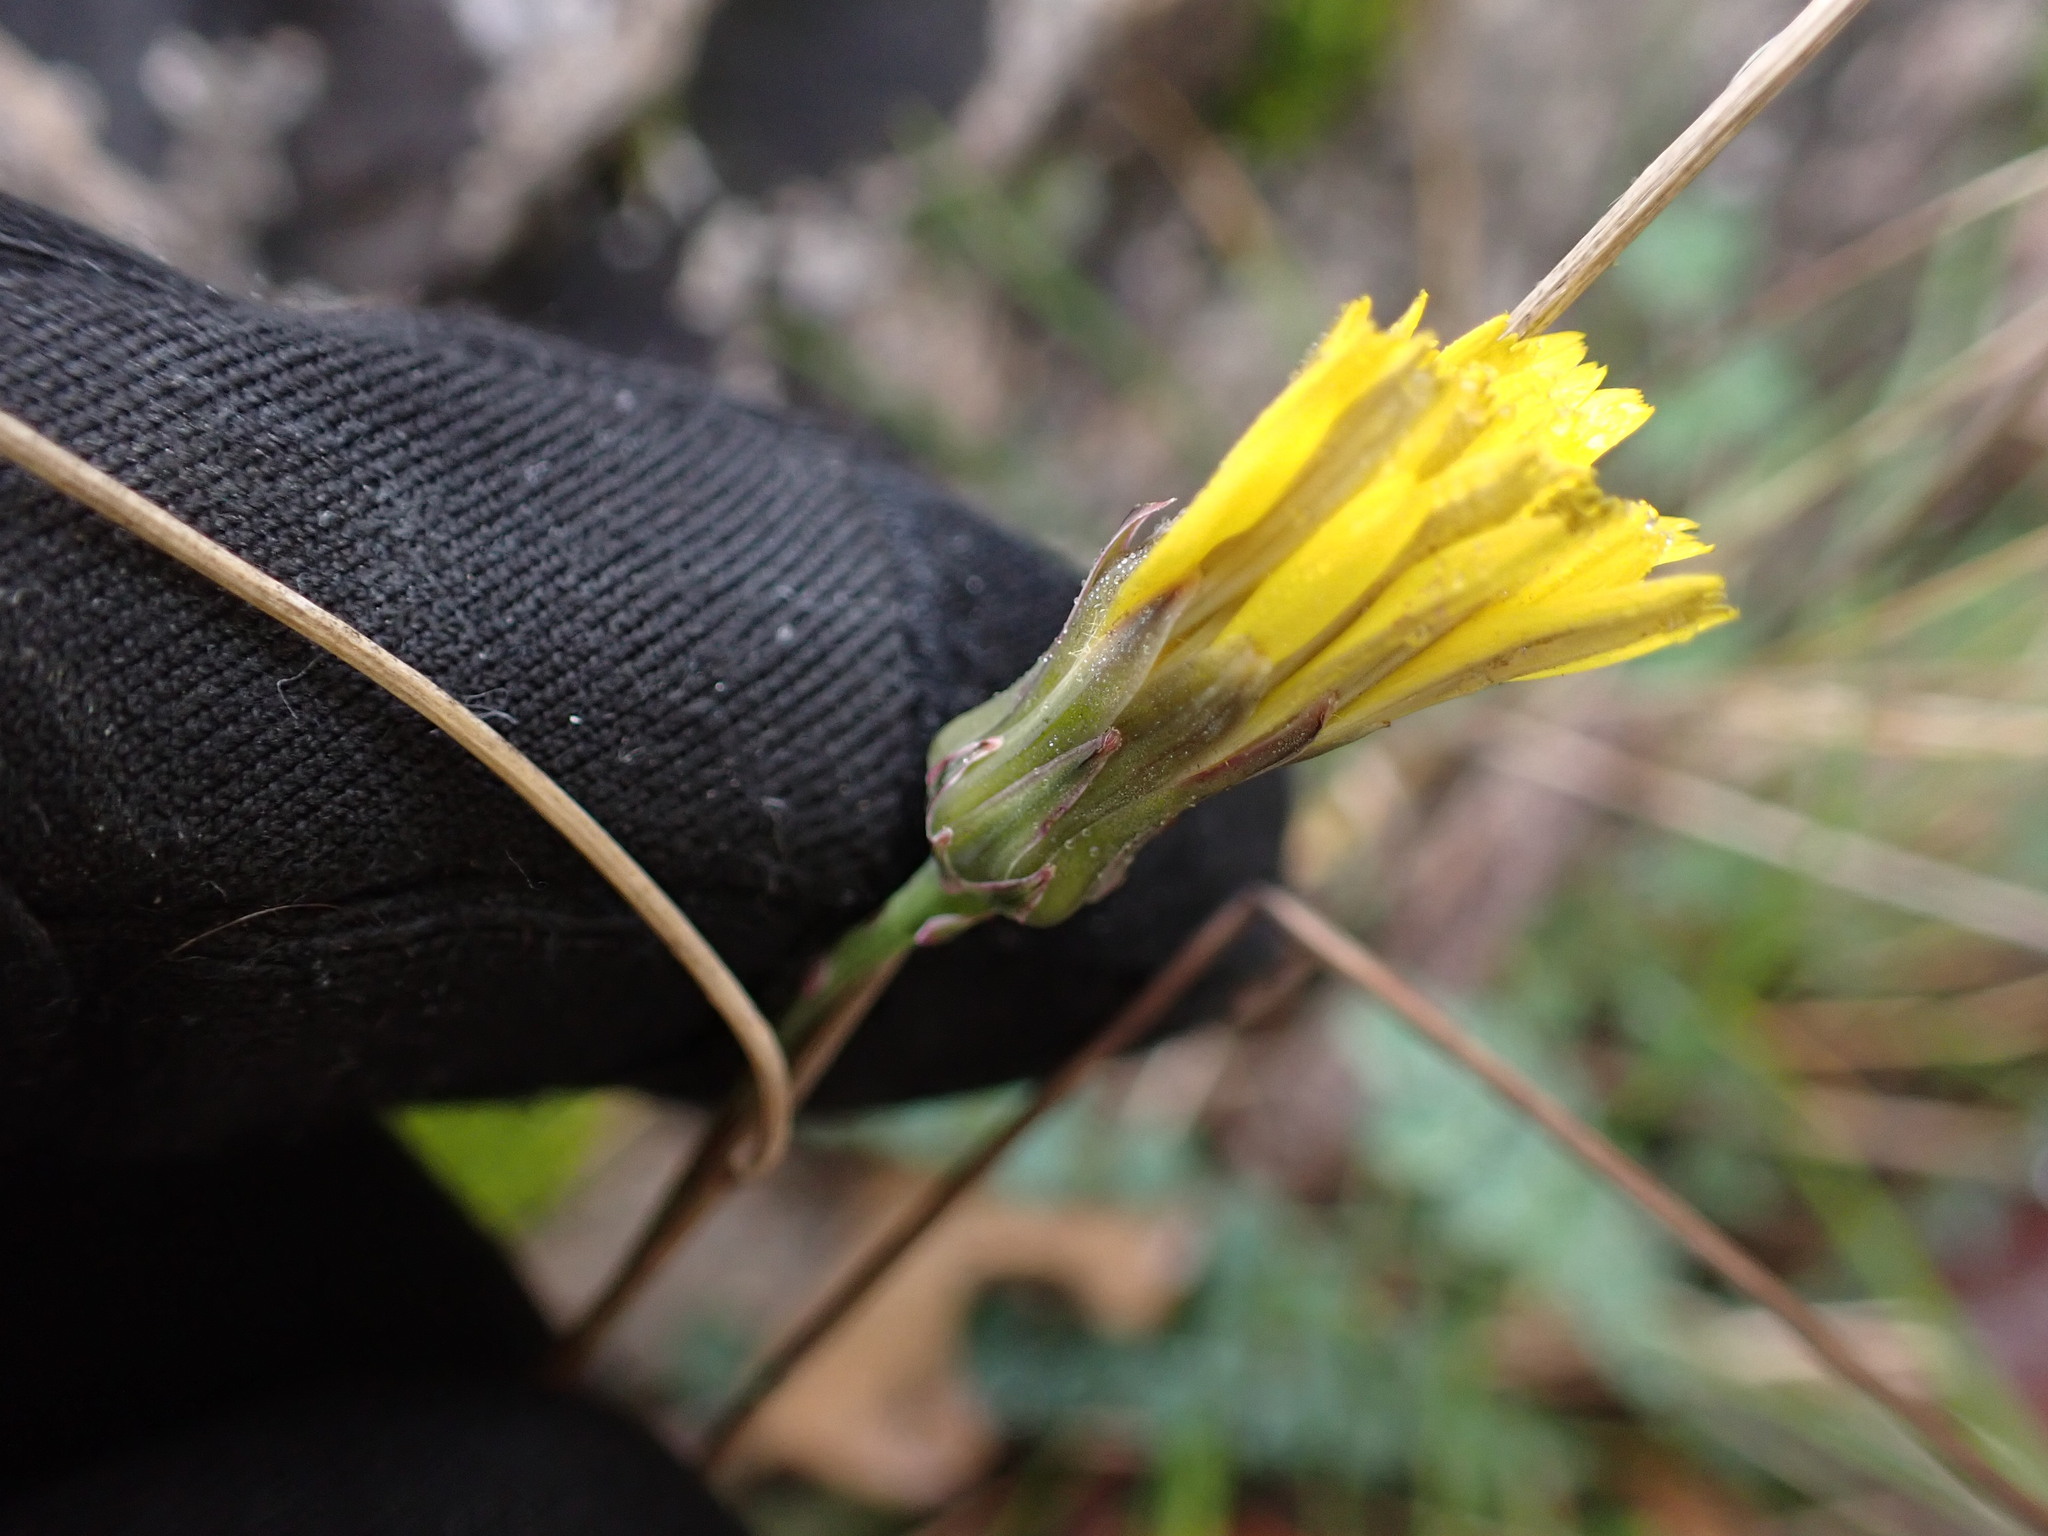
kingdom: Plantae
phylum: Tracheophyta
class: Magnoliopsida
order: Asterales
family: Asteraceae
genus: Reichardia
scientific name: Reichardia picroides
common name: Common brighteyes
